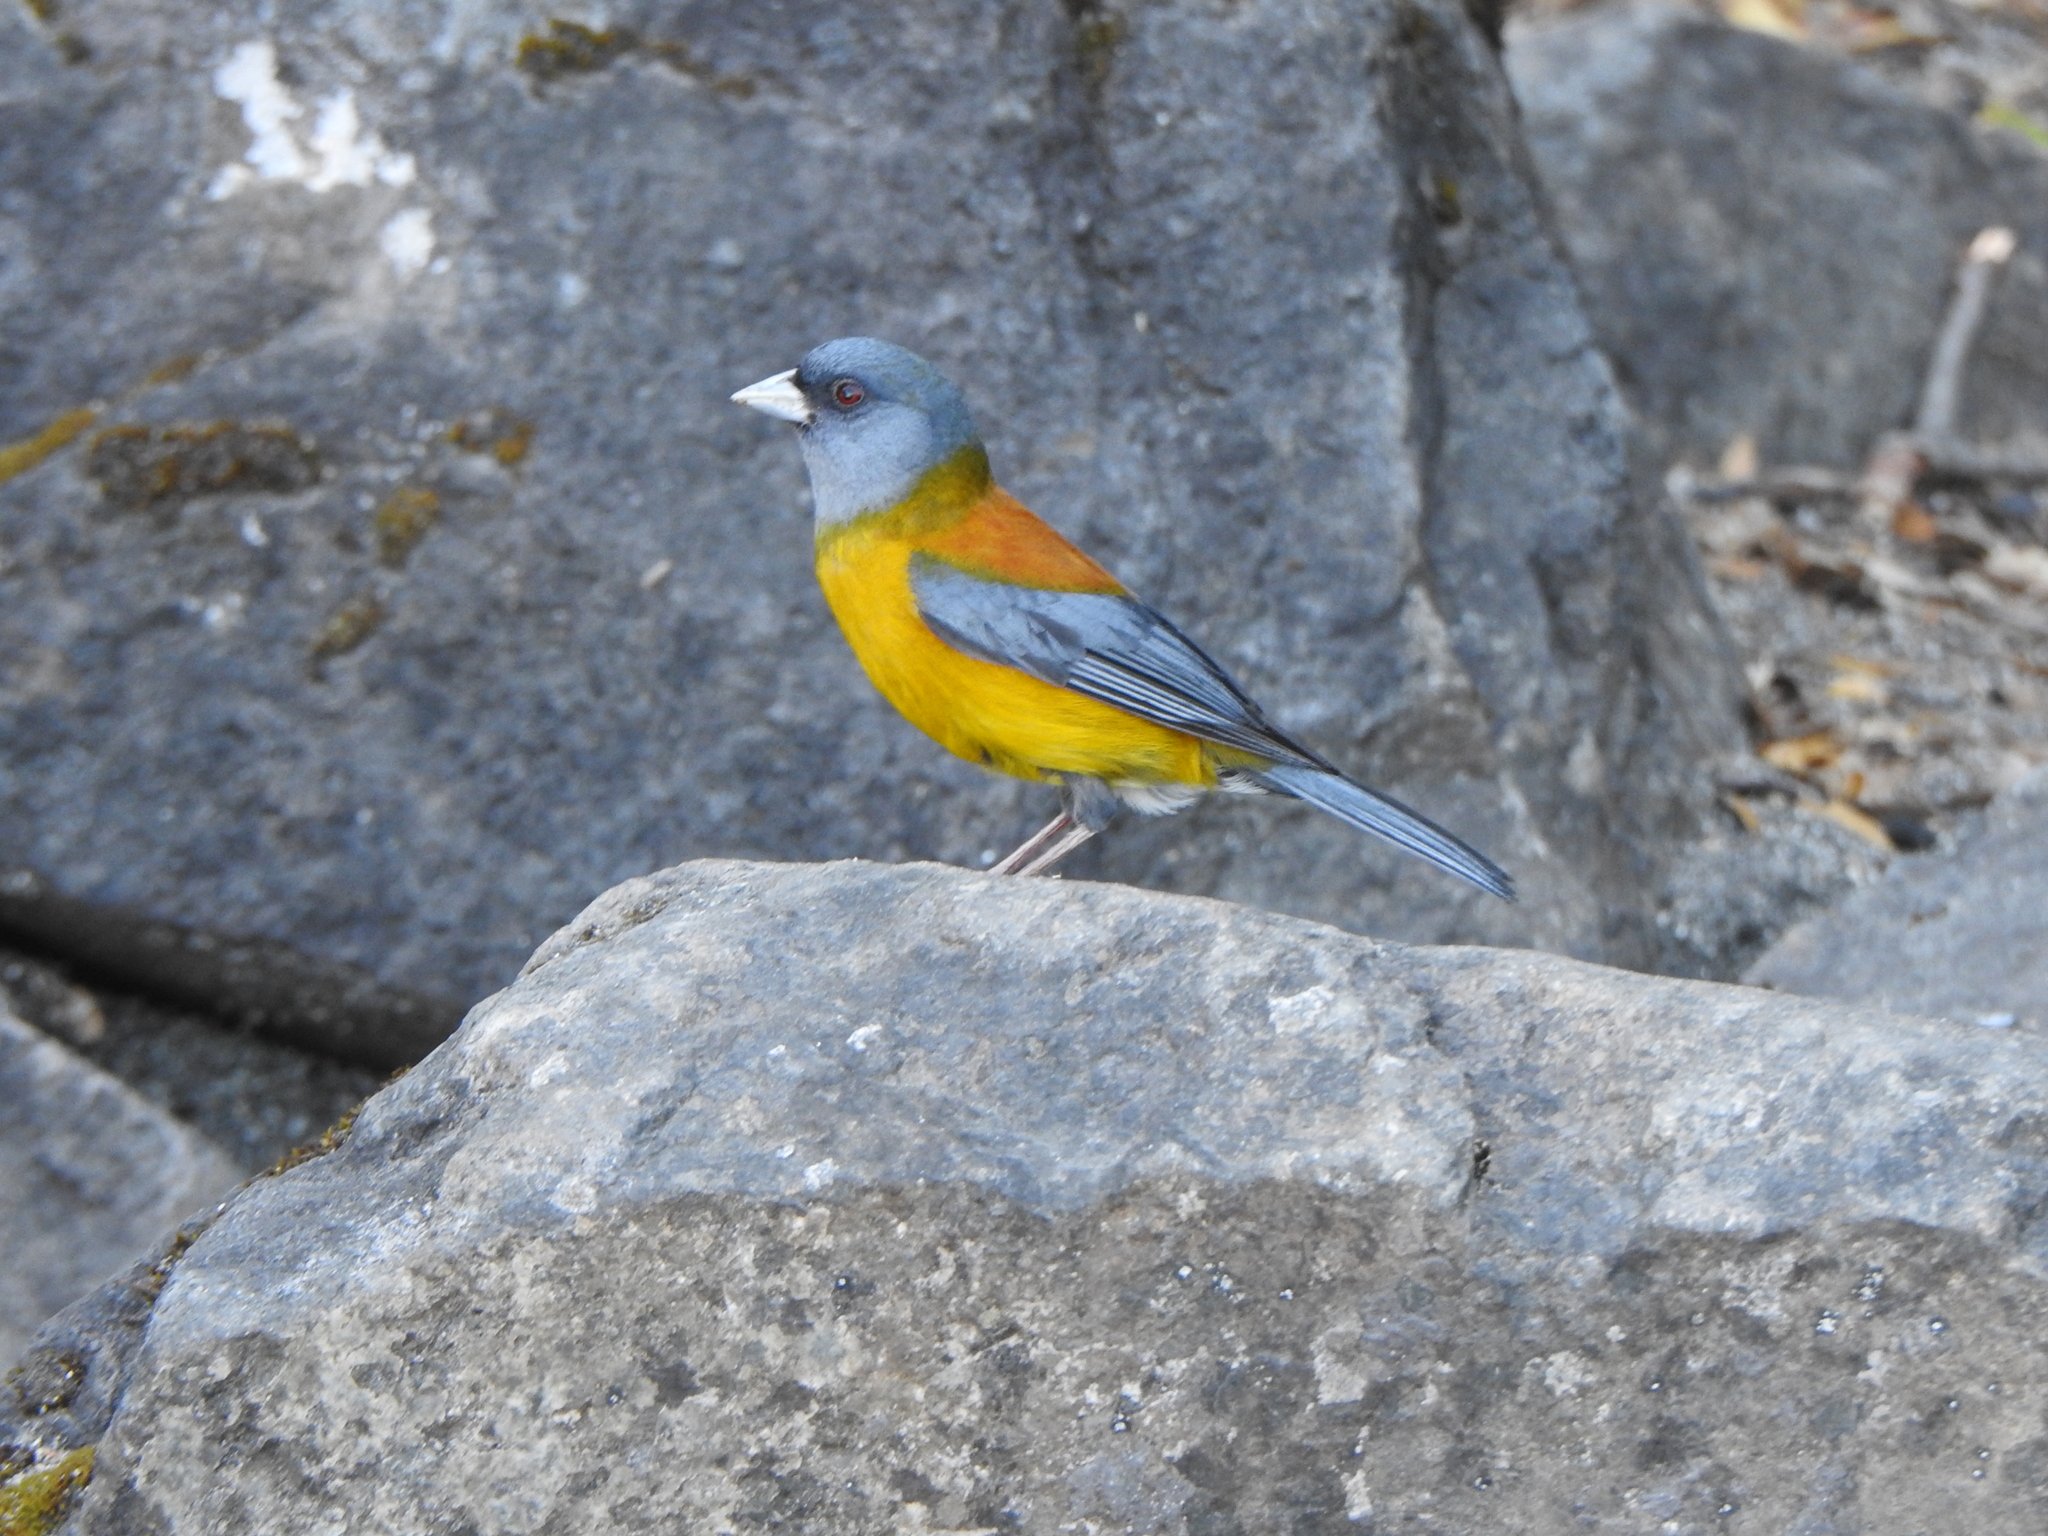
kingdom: Animalia
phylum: Chordata
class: Aves
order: Passeriformes
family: Thraupidae
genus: Phrygilus
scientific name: Phrygilus patagonicus
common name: Patagonian sierra finch
